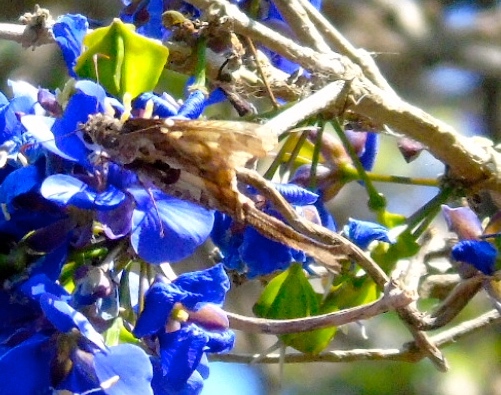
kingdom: Animalia
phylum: Arthropoda
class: Insecta
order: Lepidoptera
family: Hesperiidae
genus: Chioides
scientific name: Chioides zilpa
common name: Zilpa longtail
